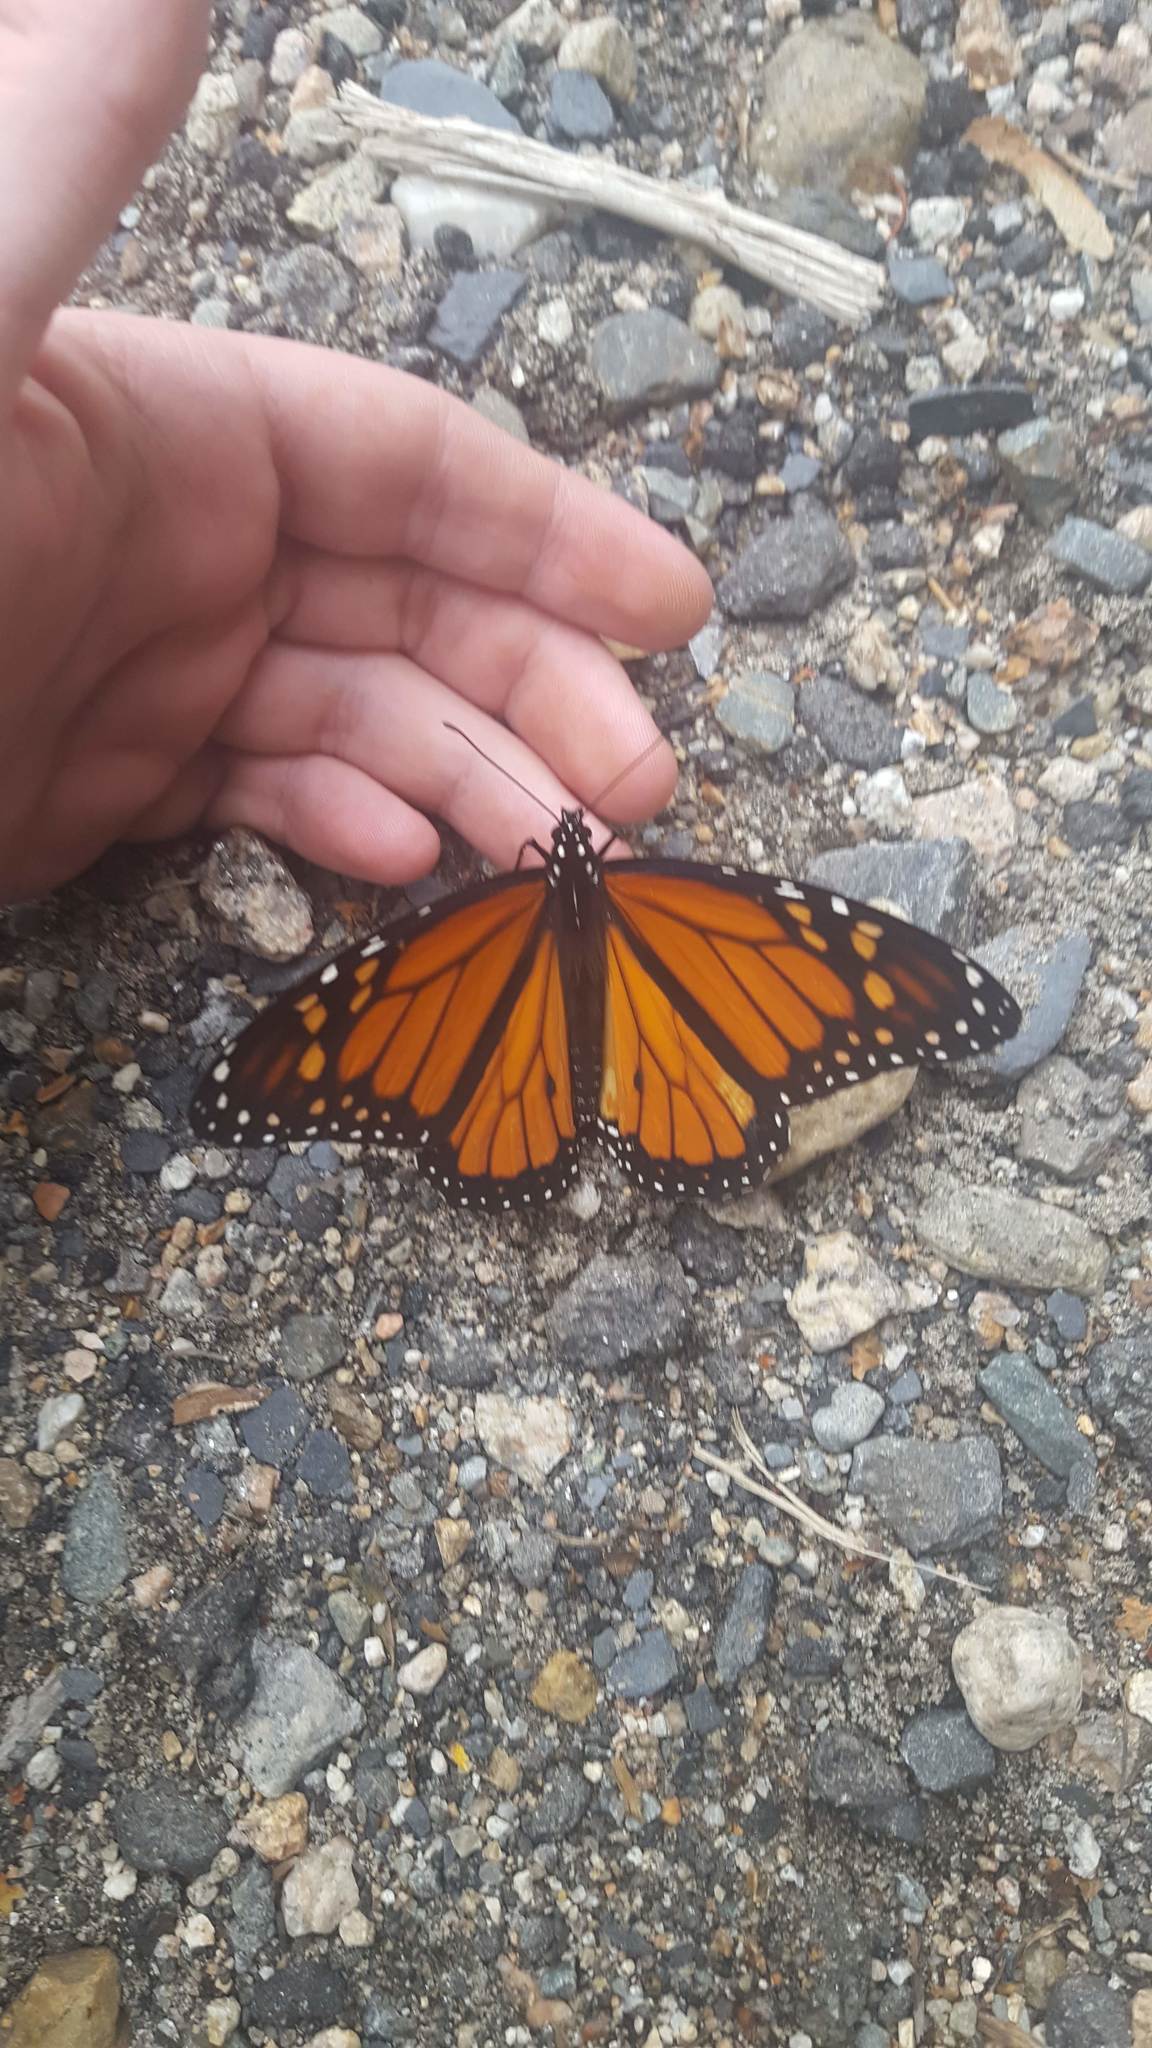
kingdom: Animalia
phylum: Arthropoda
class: Insecta
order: Lepidoptera
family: Nymphalidae
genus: Danaus
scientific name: Danaus plexippus
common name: Monarch
